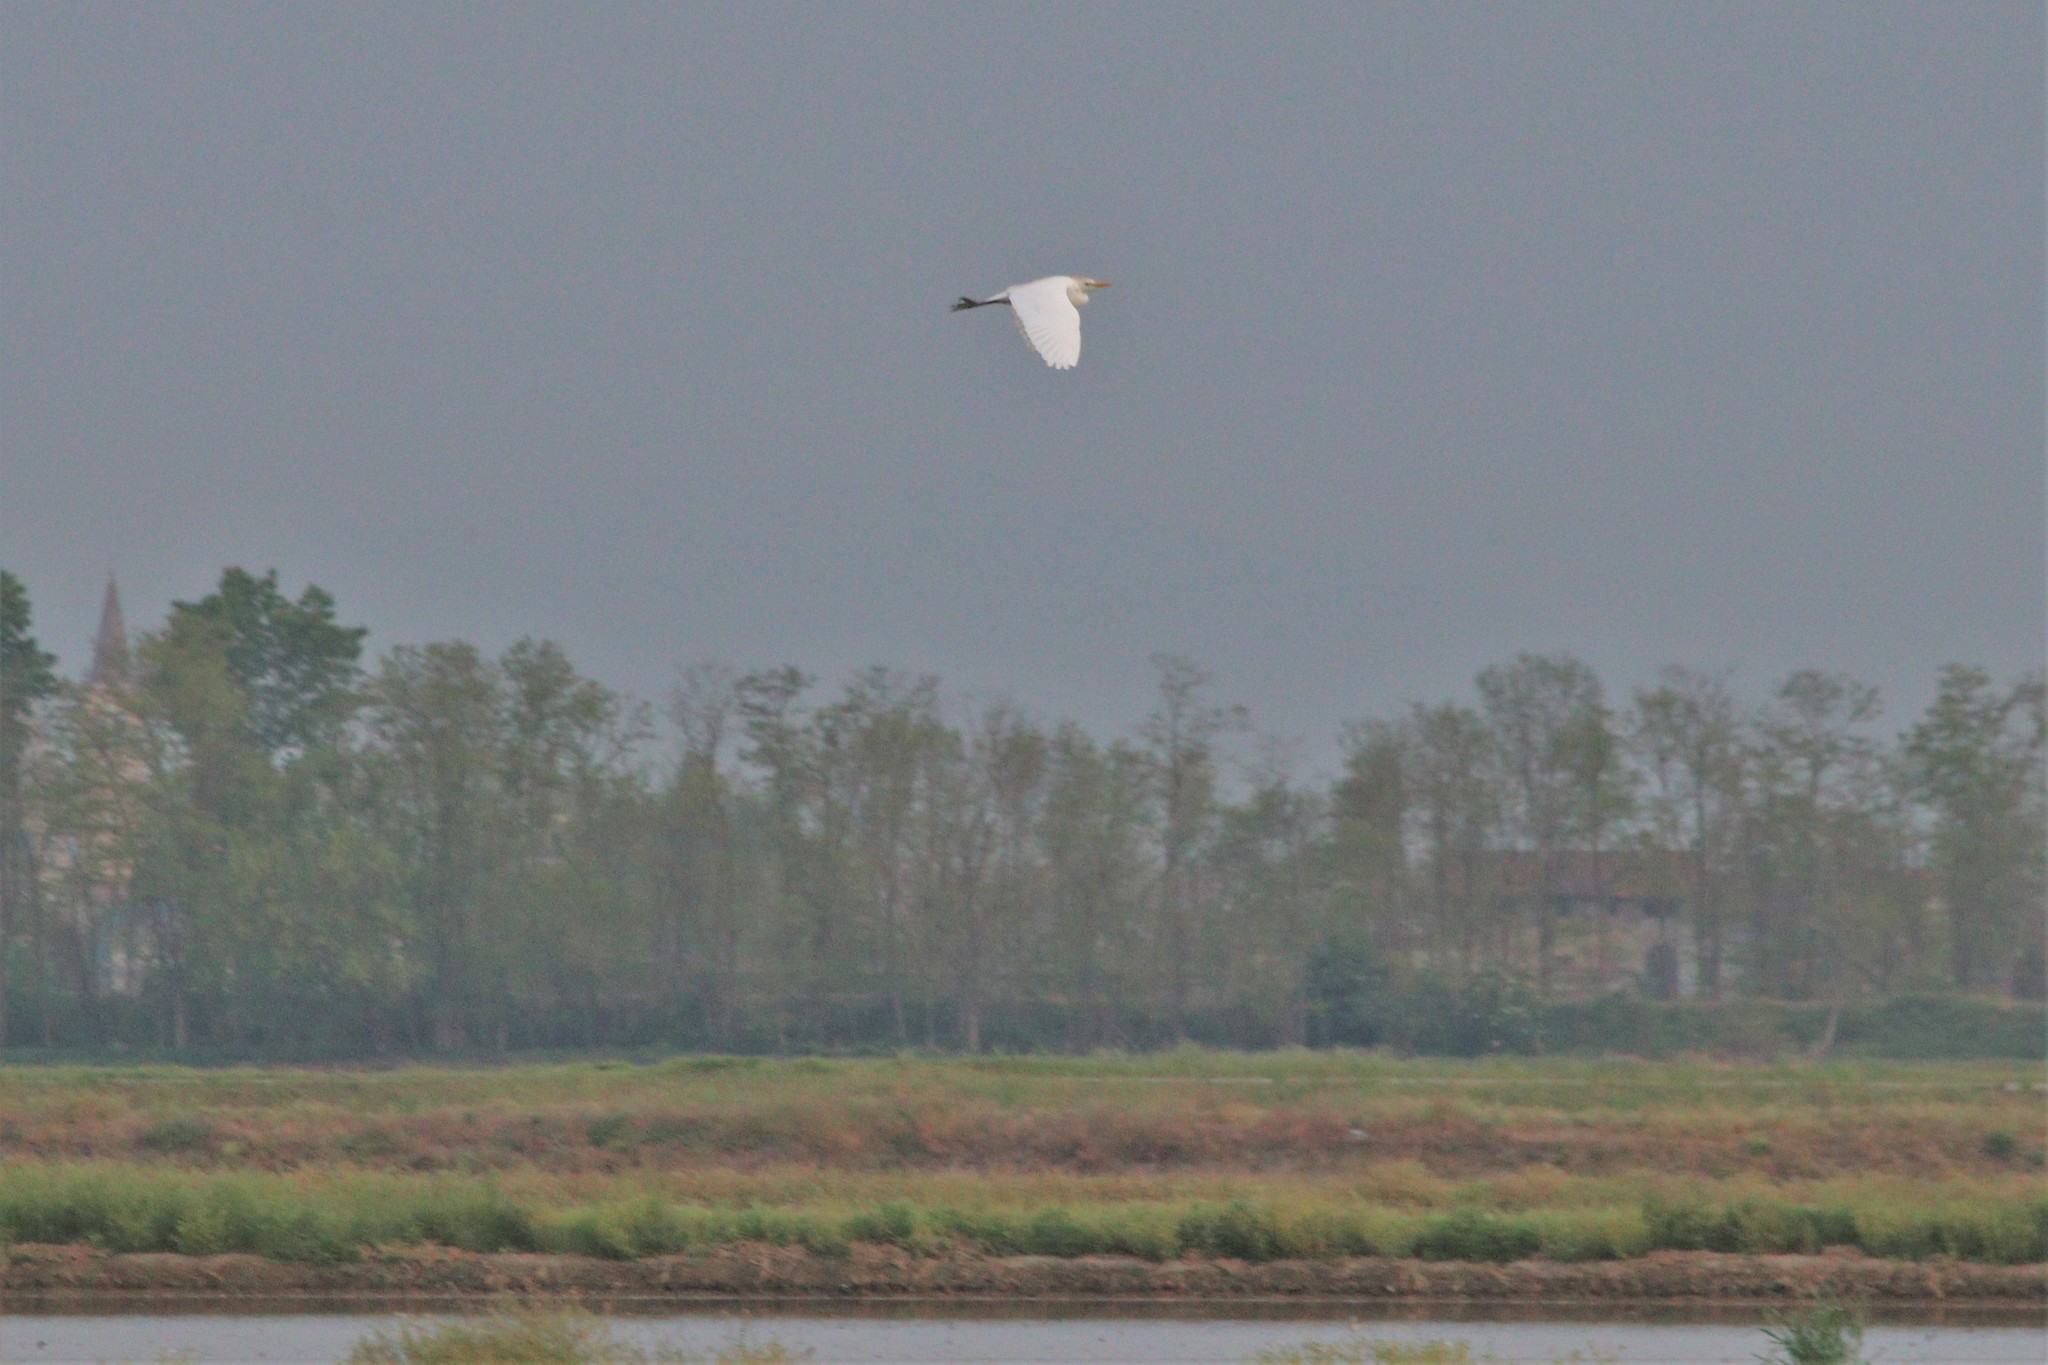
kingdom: Animalia
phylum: Chordata
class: Aves
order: Pelecaniformes
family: Ardeidae
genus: Bubulcus
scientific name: Bubulcus ibis
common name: Cattle egret
